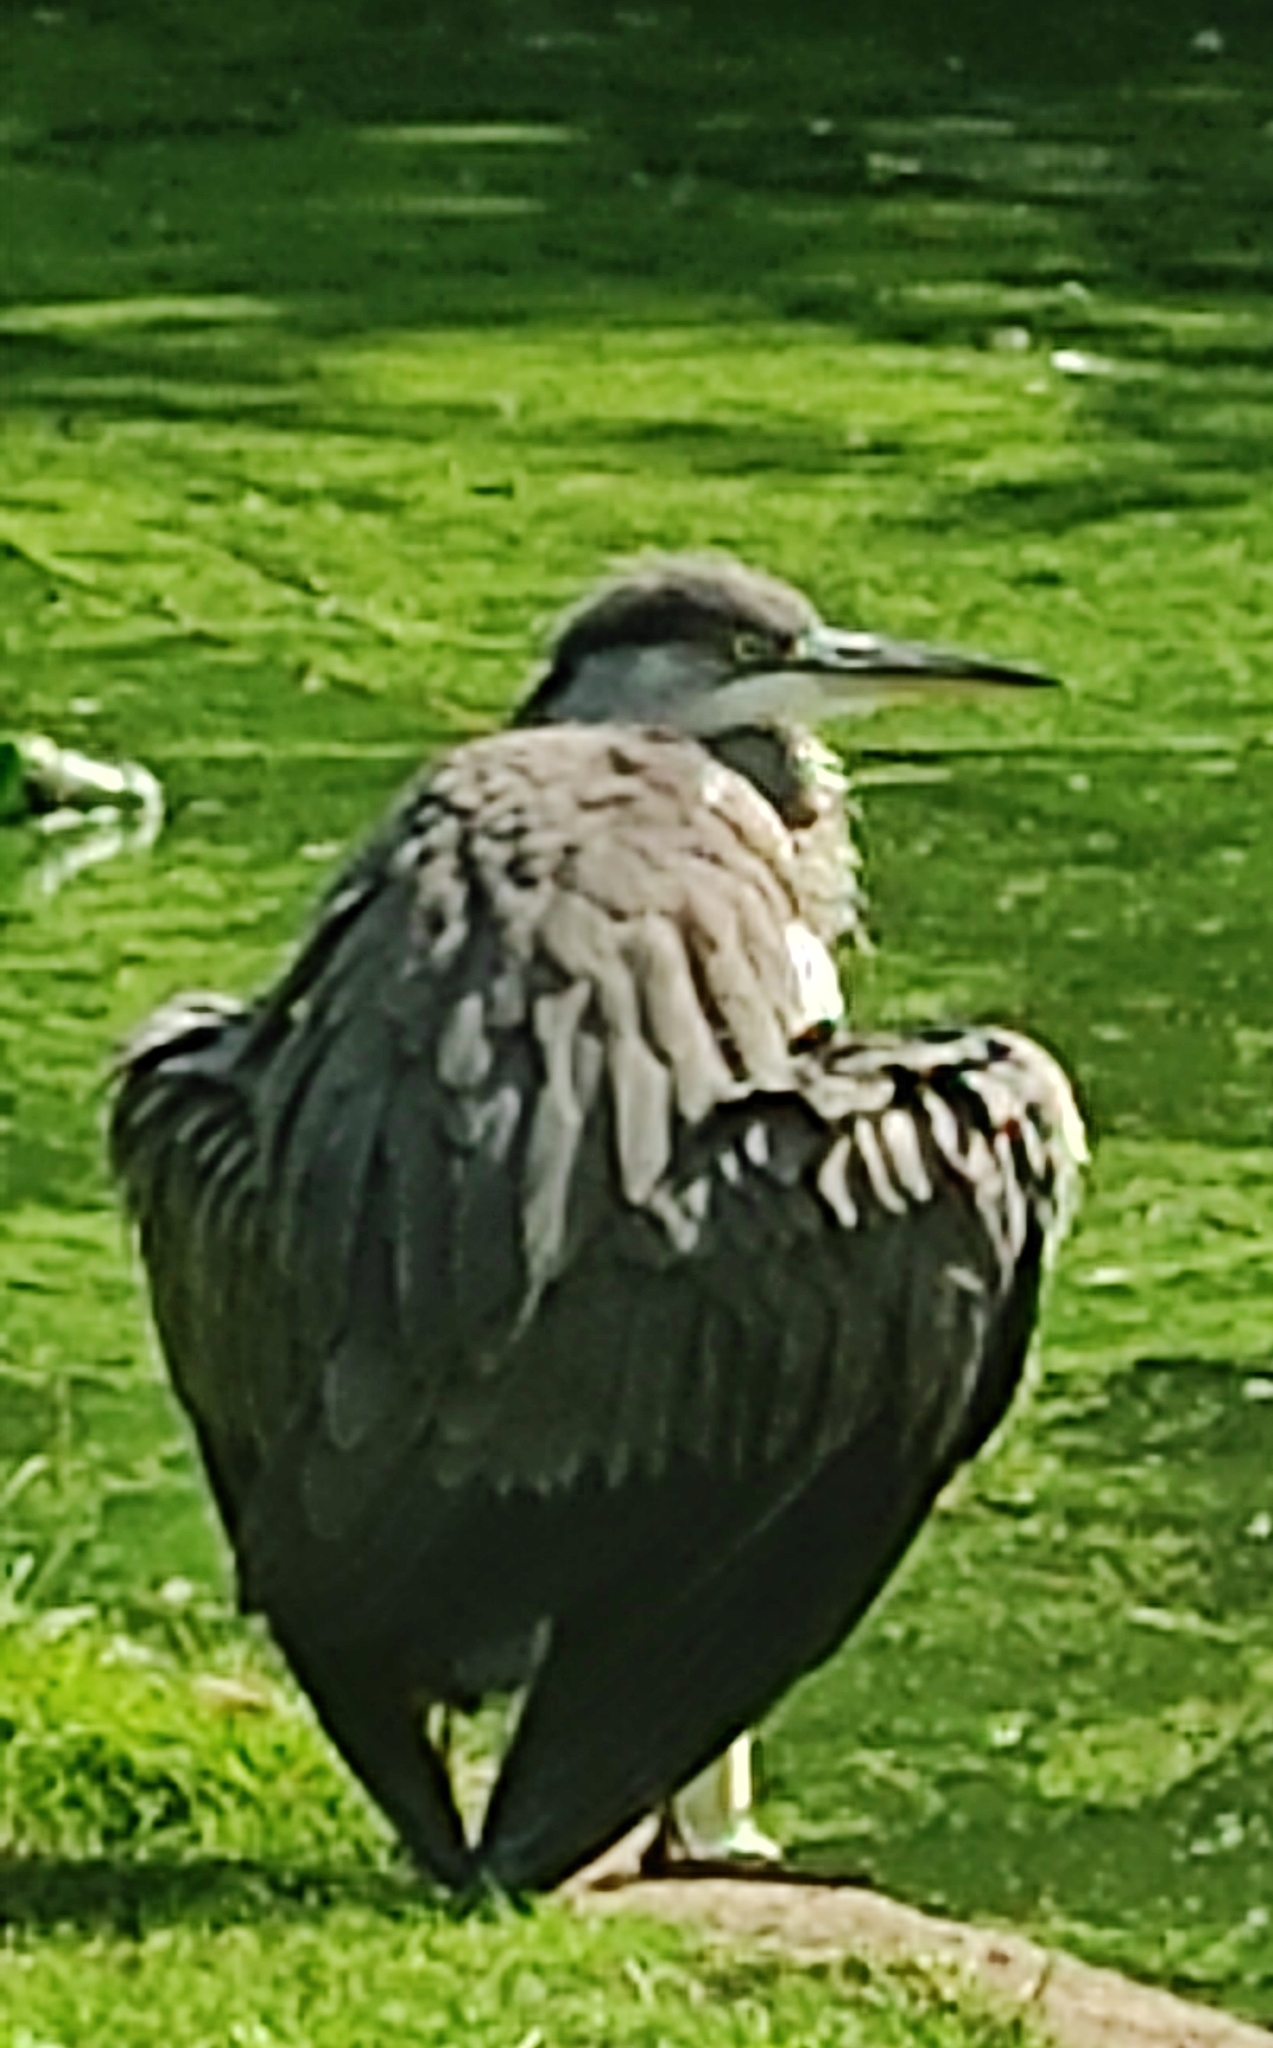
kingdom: Animalia
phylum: Chordata
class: Aves
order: Pelecaniformes
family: Ardeidae
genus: Ardea
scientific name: Ardea cinerea
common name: Grey heron
